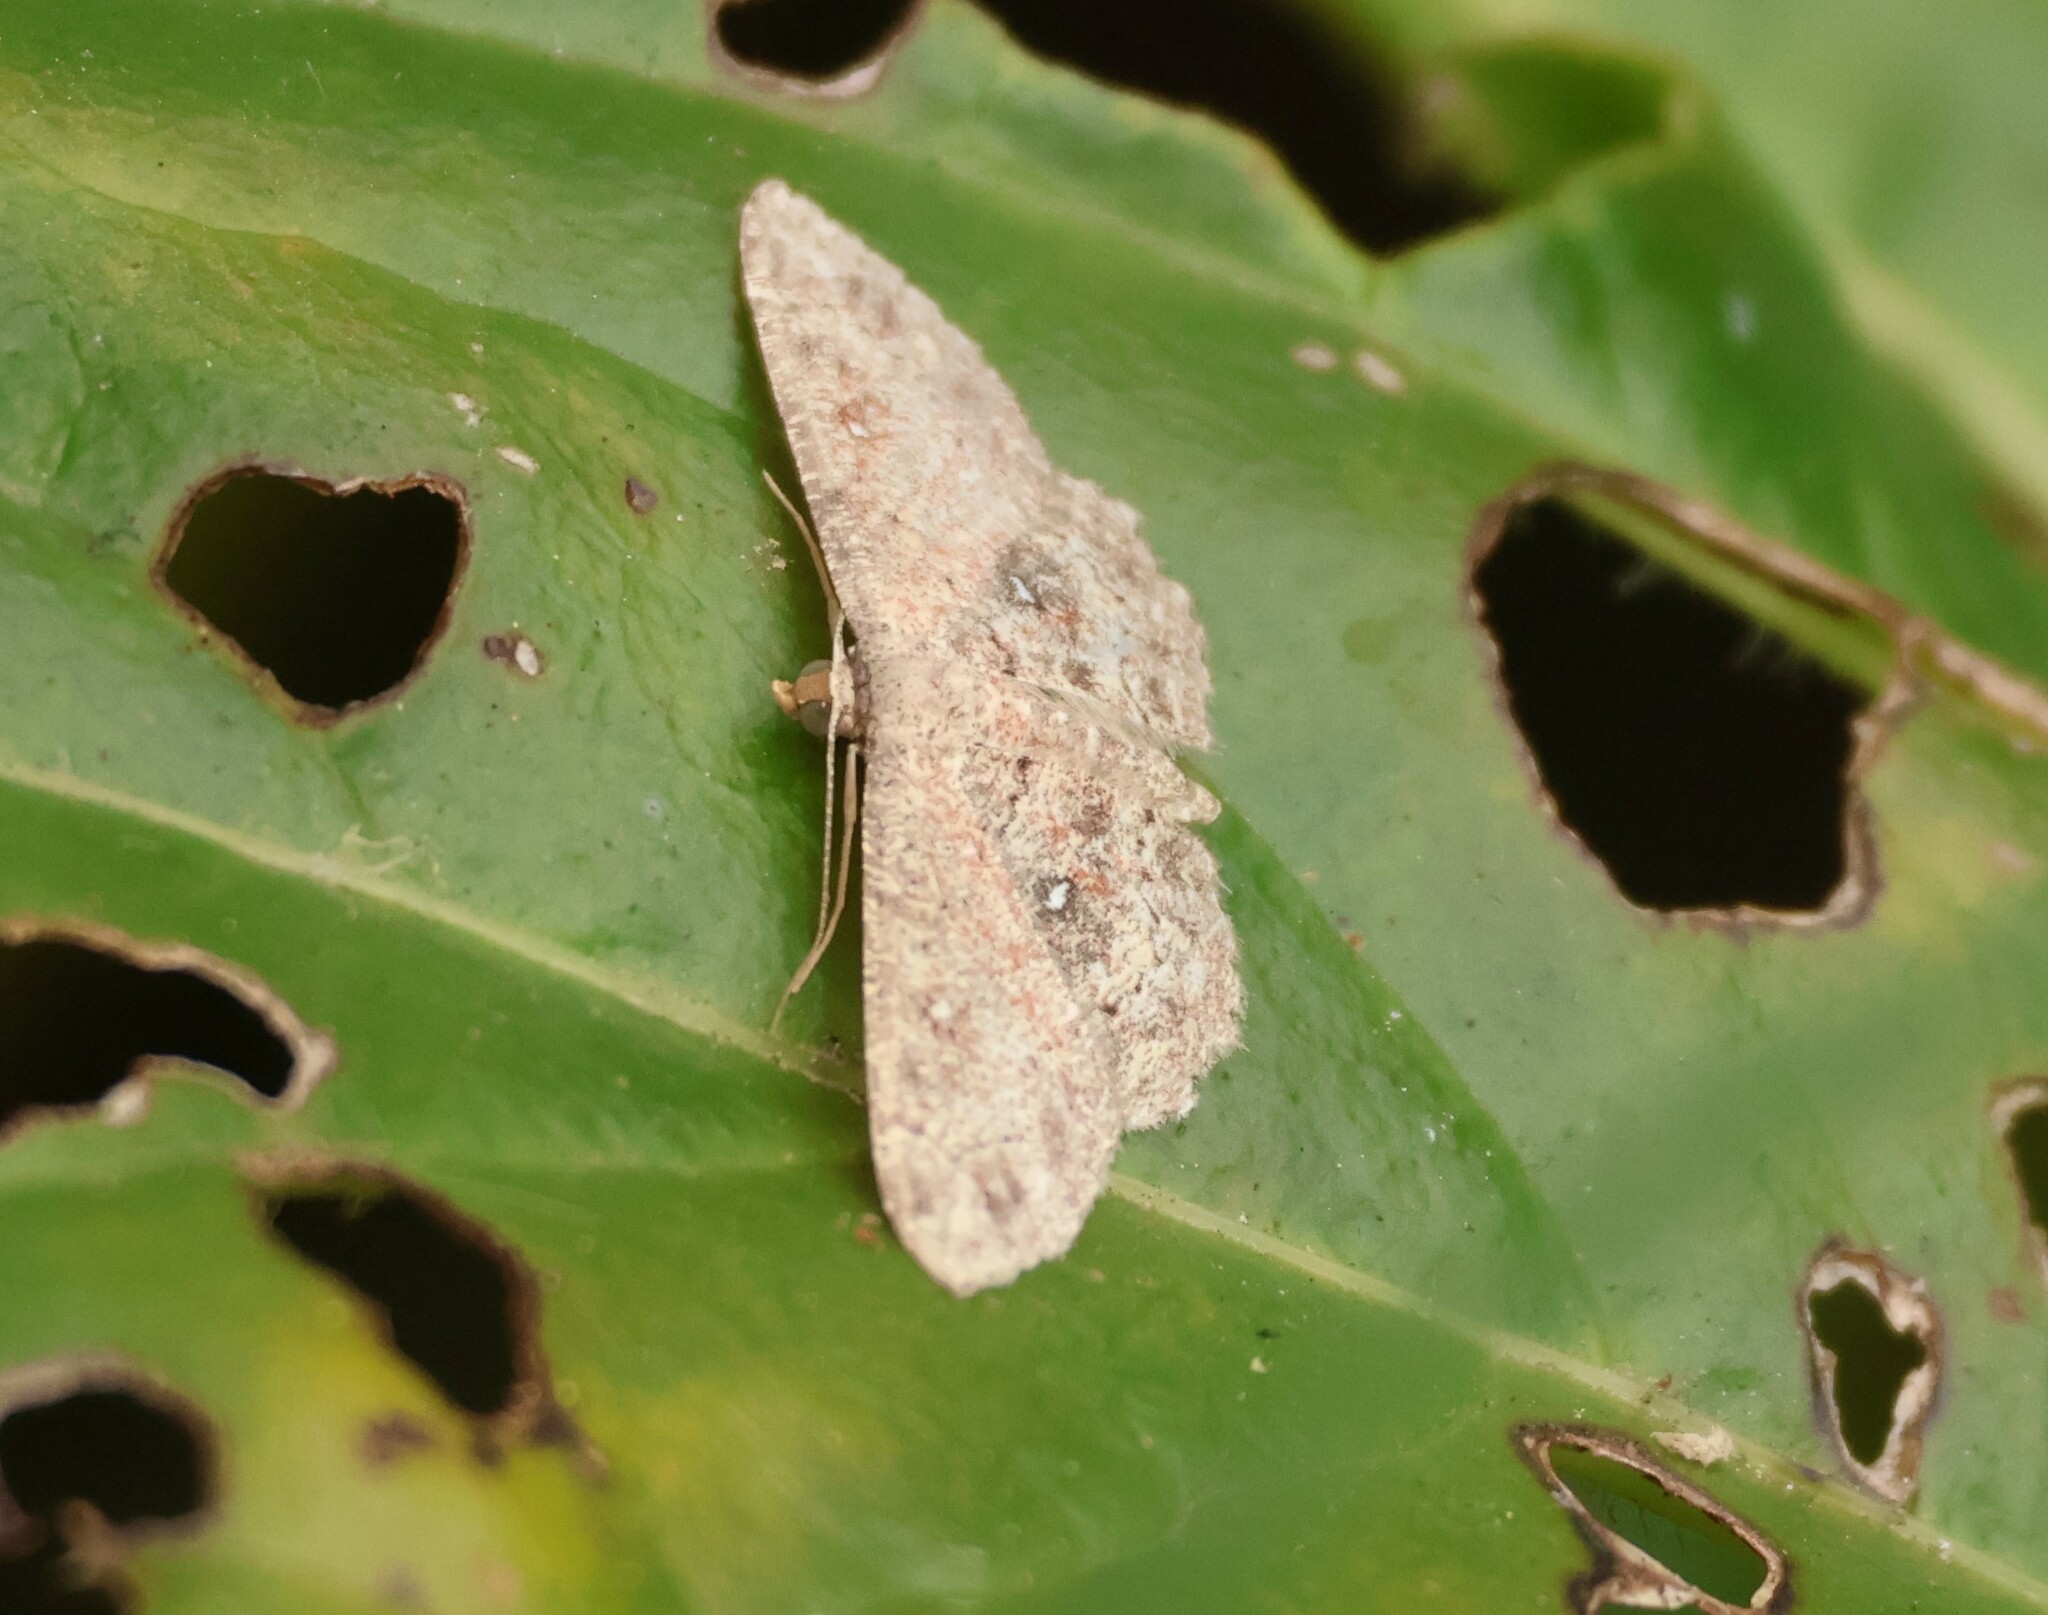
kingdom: Animalia
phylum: Arthropoda
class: Insecta
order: Lepidoptera
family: Geometridae
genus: Cyclophora
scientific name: Cyclophora nanaria
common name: Cankerworm
